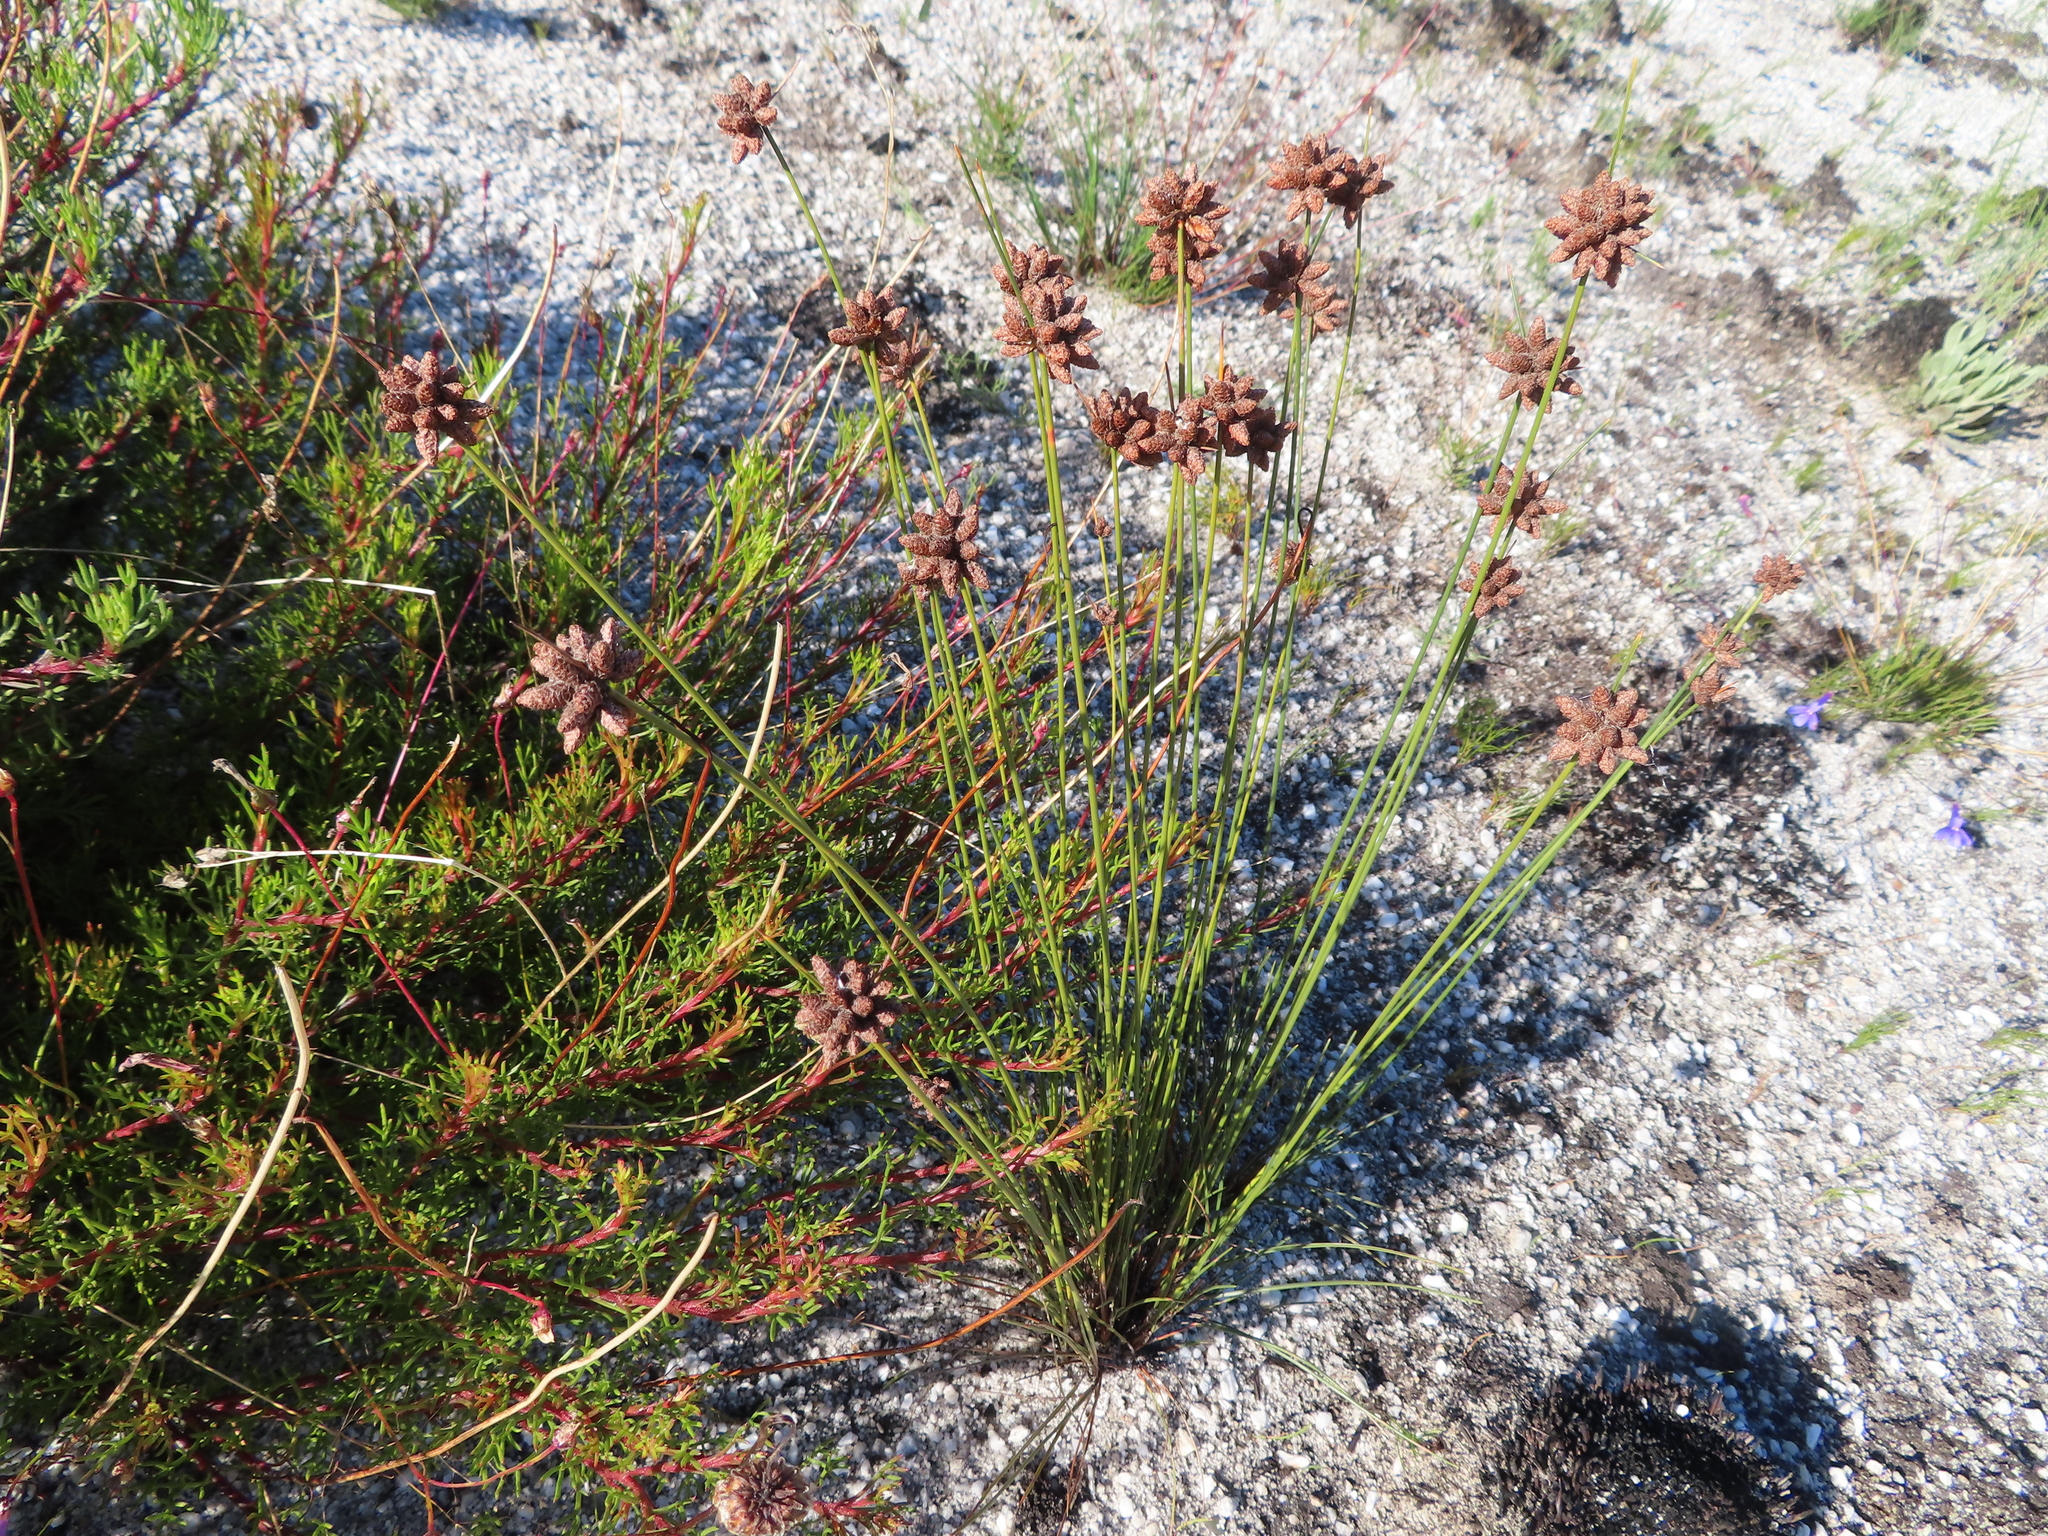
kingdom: Plantae
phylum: Tracheophyta
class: Liliopsida
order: Poales
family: Cyperaceae
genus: Ficinia
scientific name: Ficinia bulbosa
